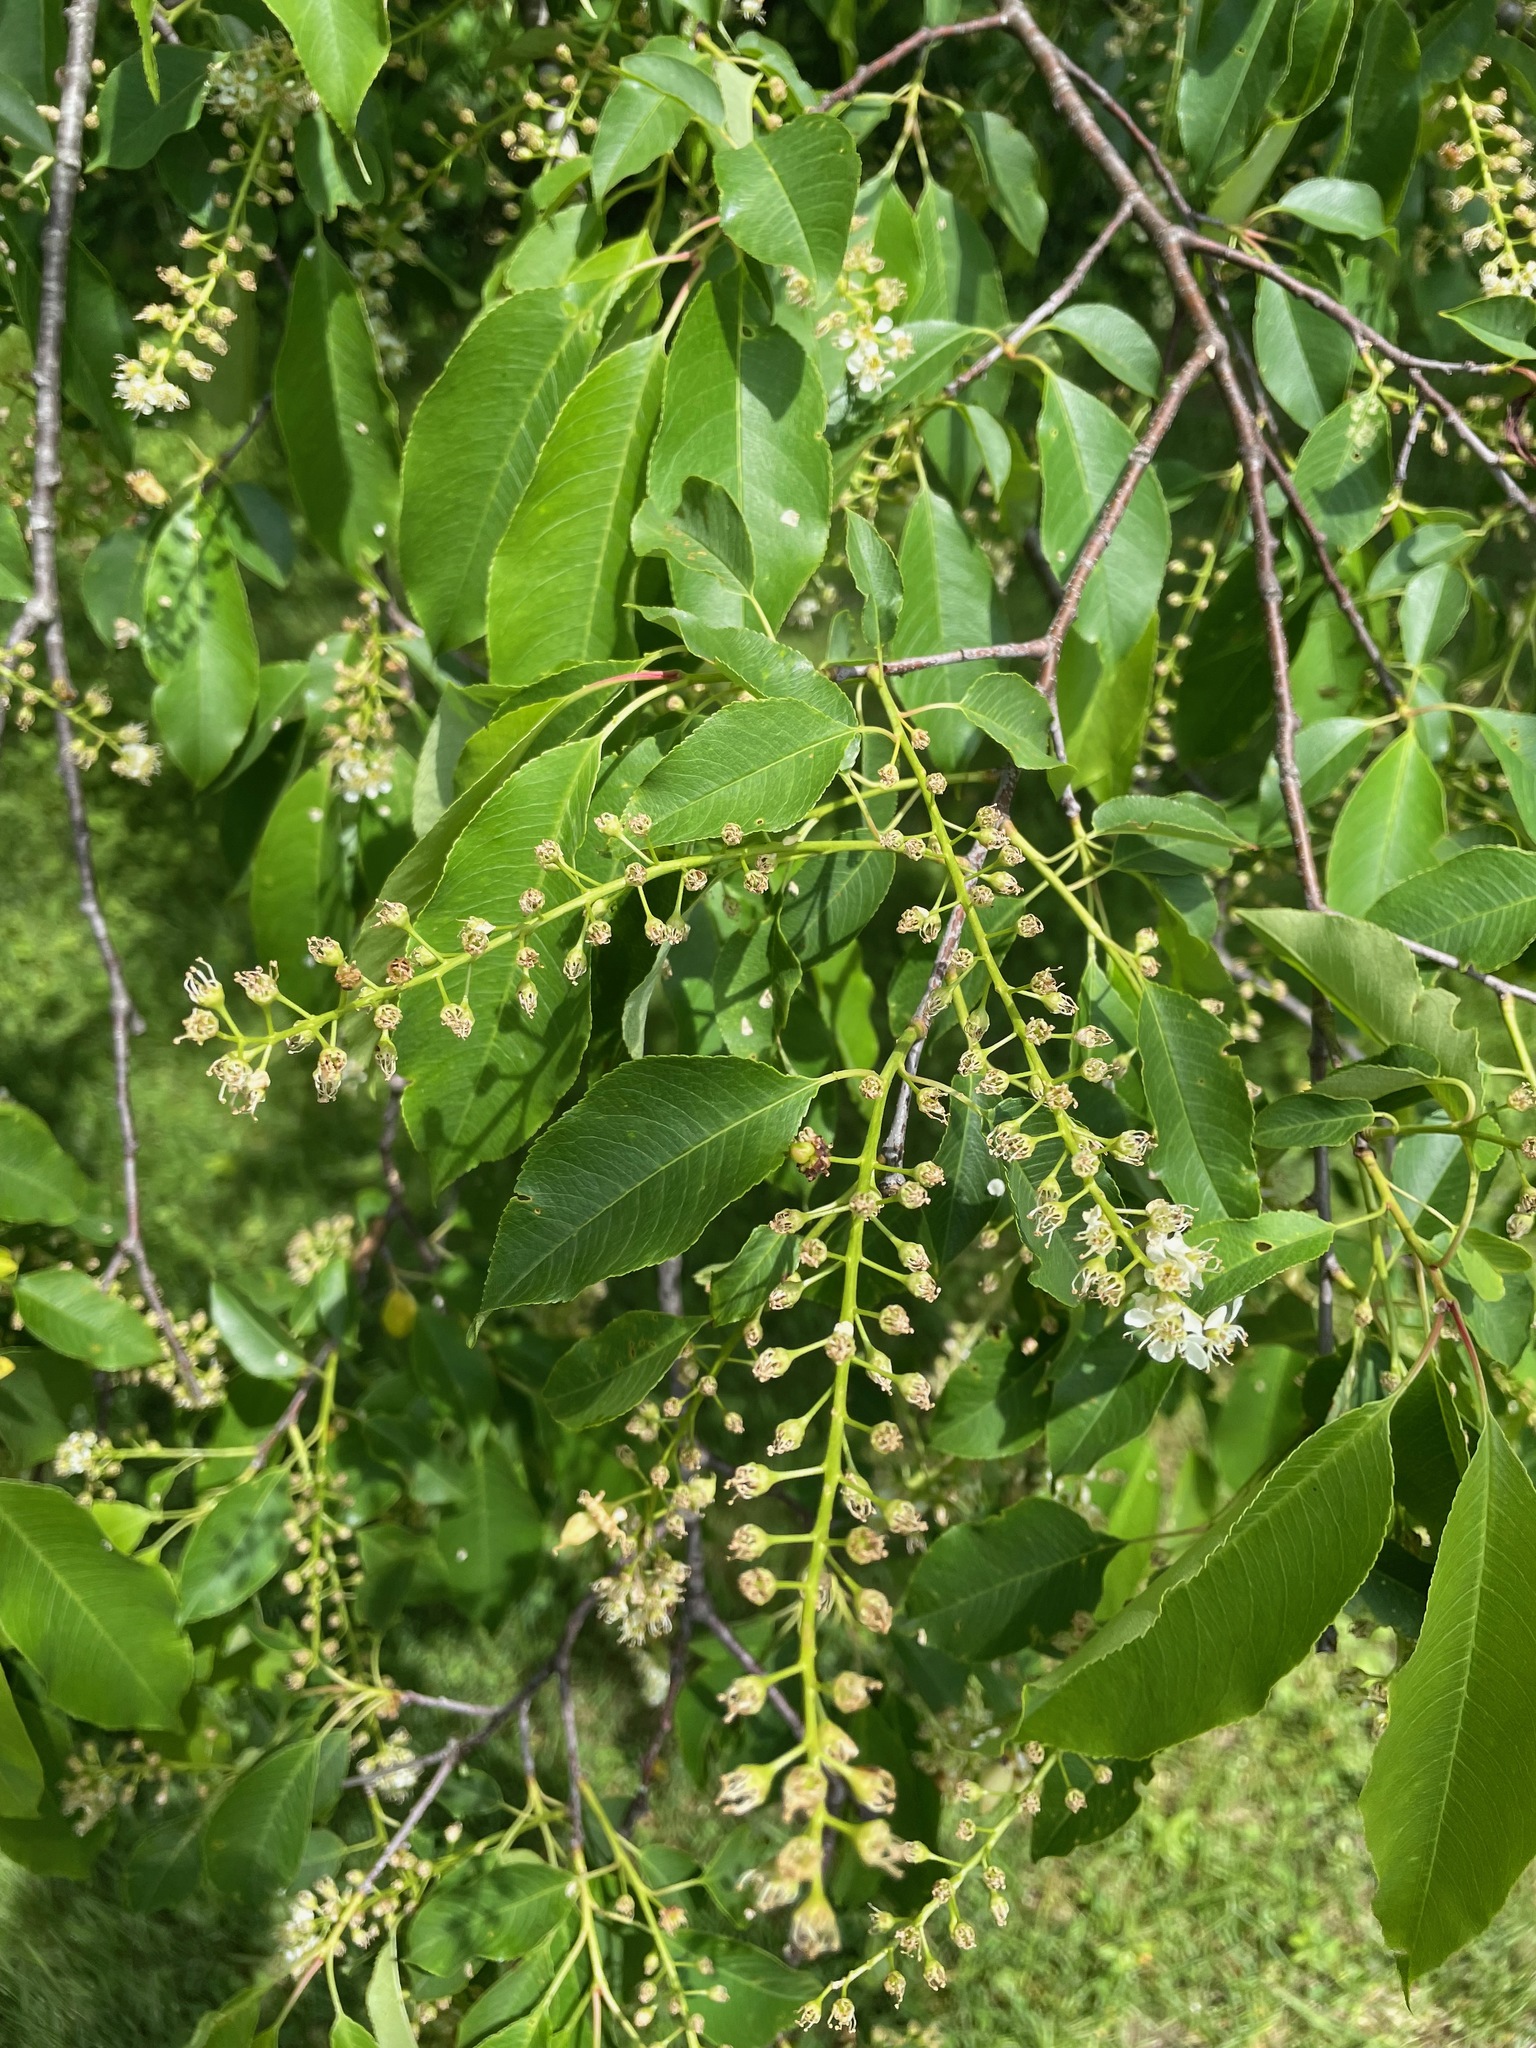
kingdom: Plantae
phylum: Tracheophyta
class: Magnoliopsida
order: Rosales
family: Rosaceae
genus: Prunus
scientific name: Prunus serotina
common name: Black cherry
